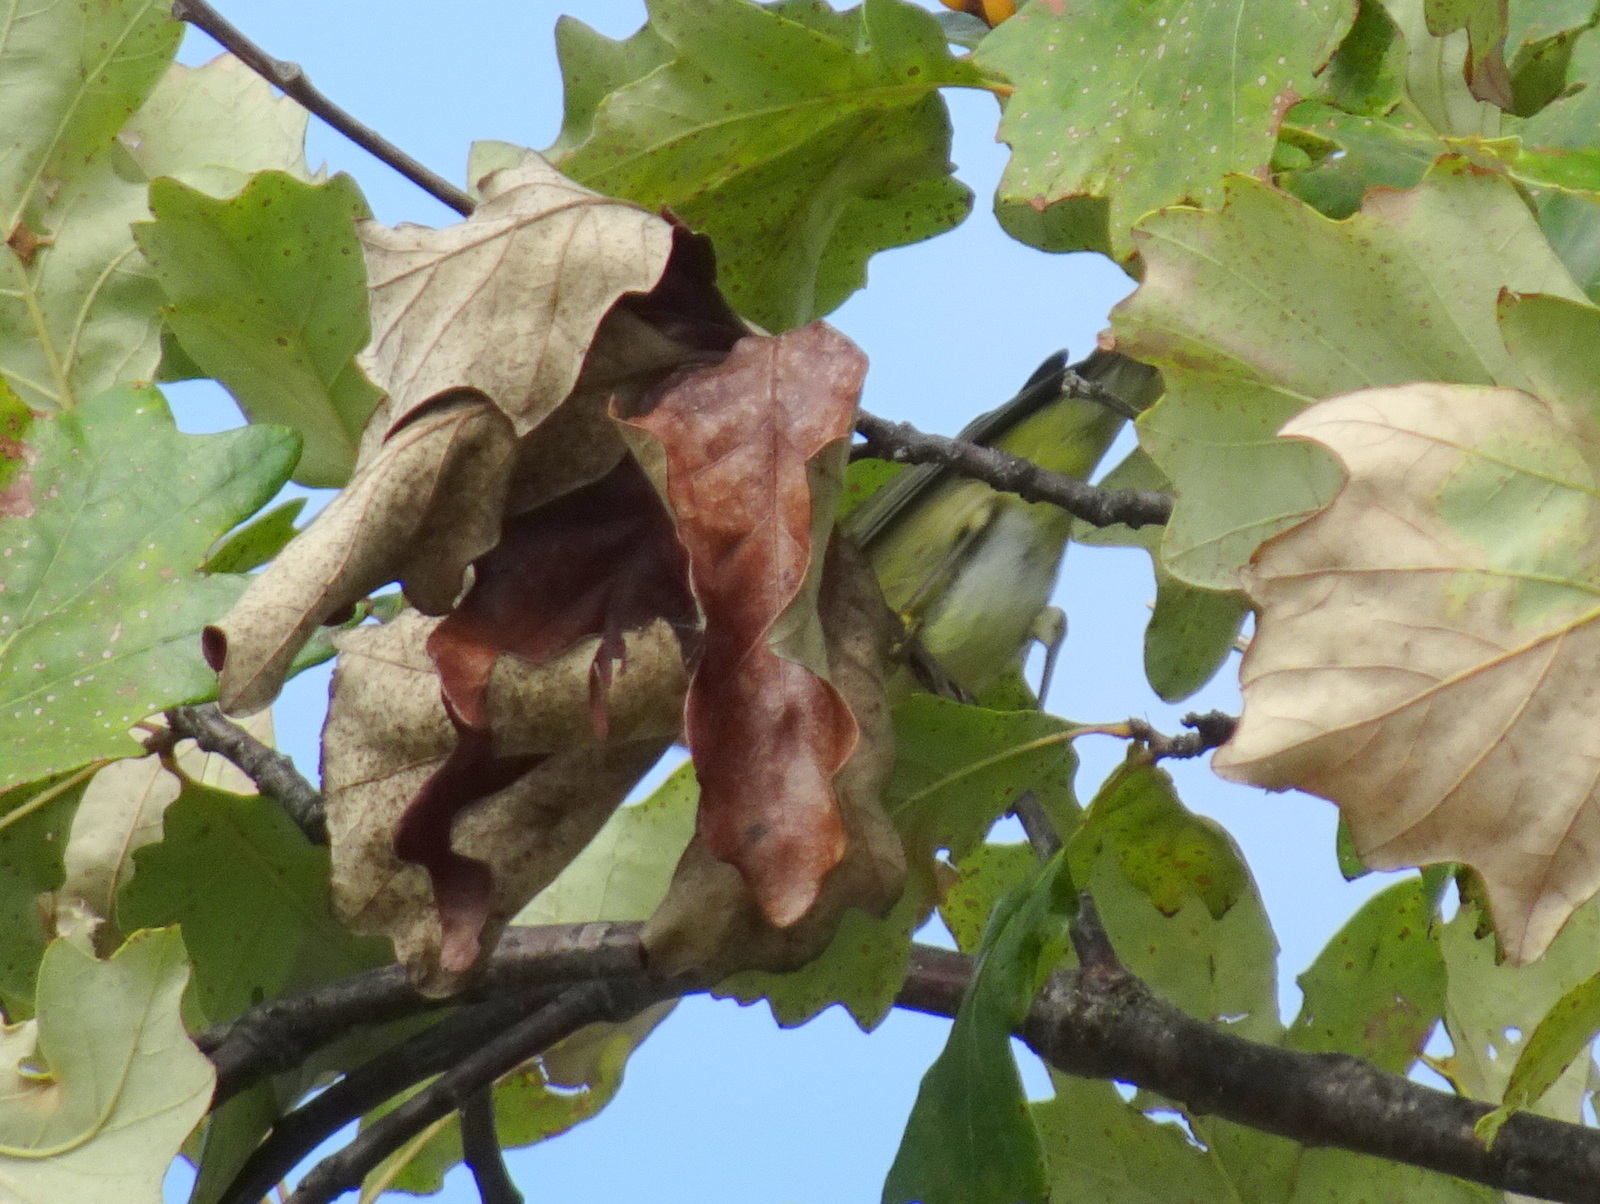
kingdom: Animalia
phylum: Chordata
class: Aves
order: Passeriformes
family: Parulidae
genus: Leiothlypis
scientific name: Leiothlypis celata
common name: Orange-crowned warbler
